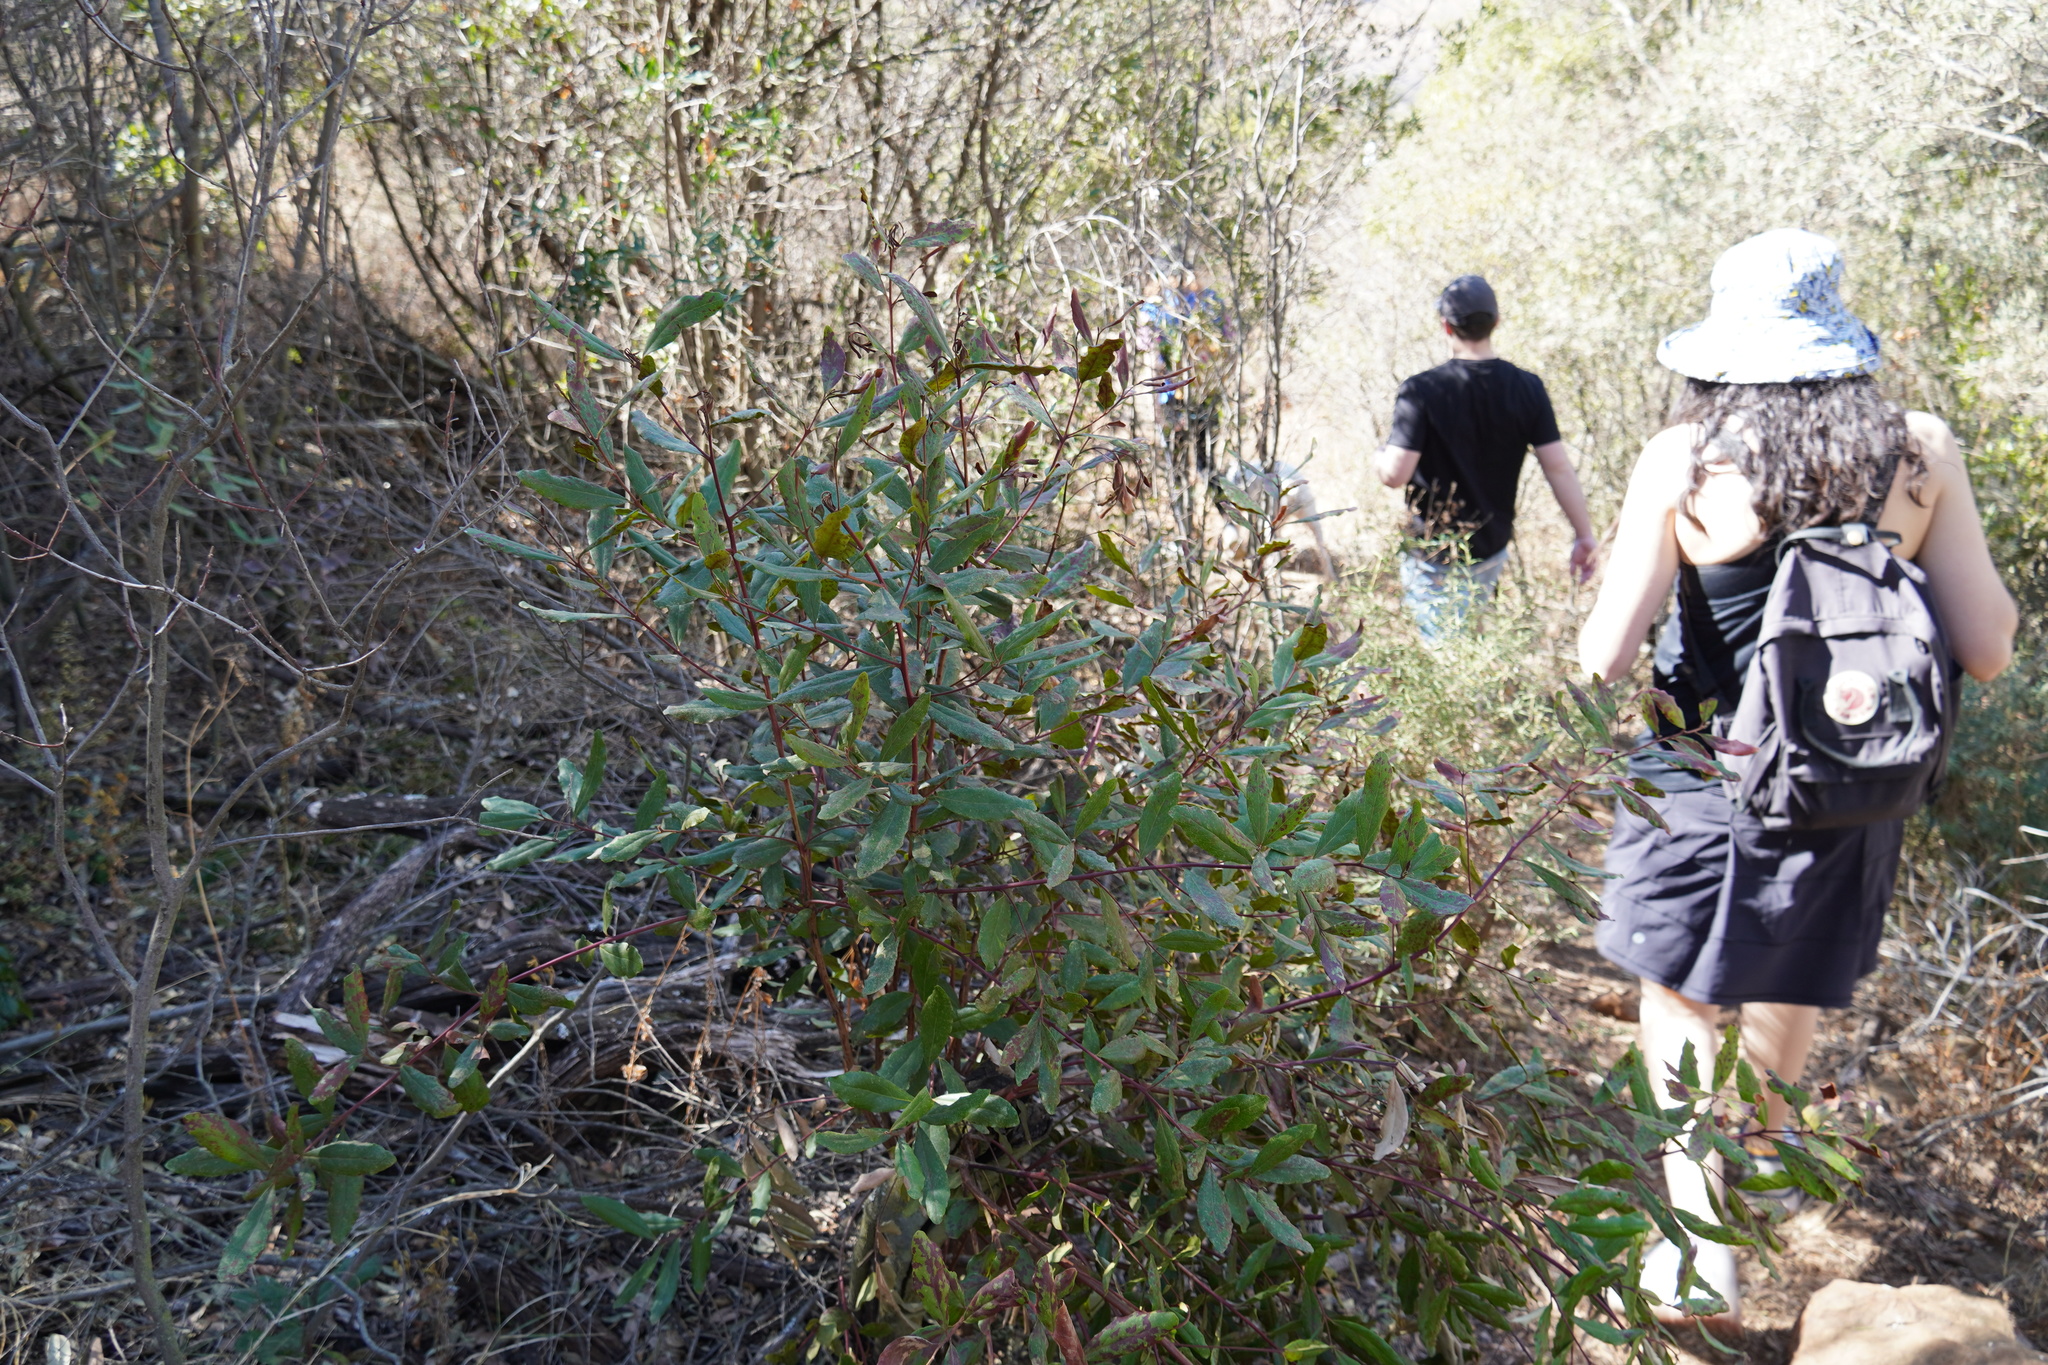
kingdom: Plantae
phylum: Tracheophyta
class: Magnoliopsida
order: Ericales
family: Ebenaceae
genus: Euclea
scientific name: Euclea crispa
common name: Blue guarri
